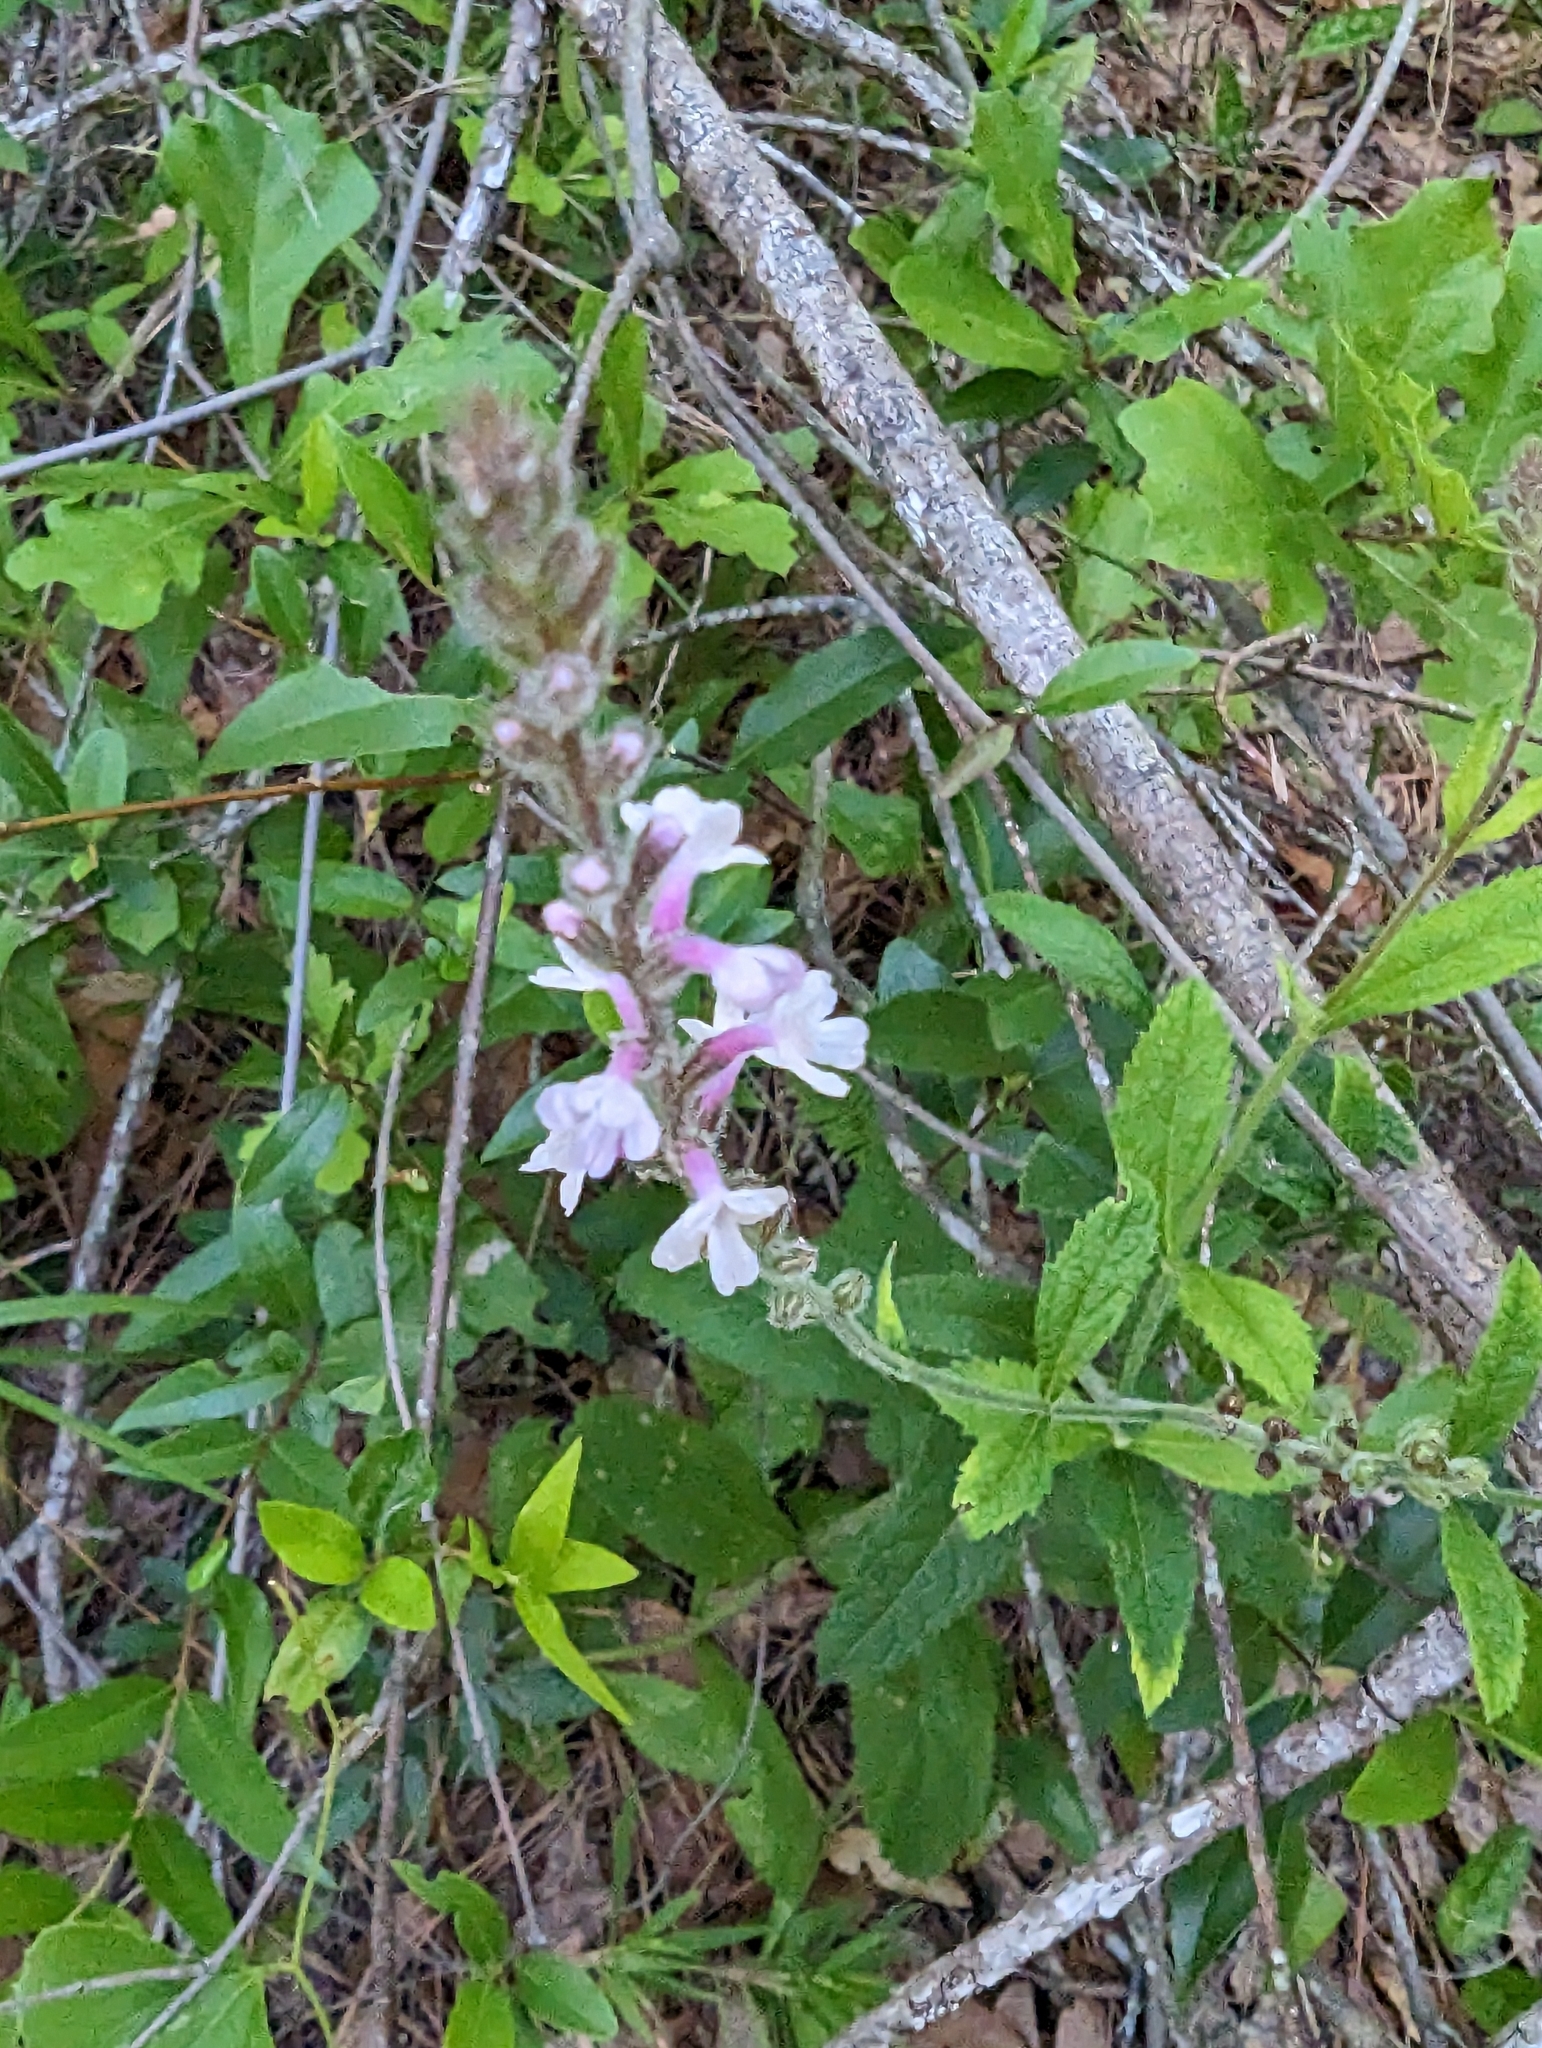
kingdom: Plantae
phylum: Tracheophyta
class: Magnoliopsida
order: Lamiales
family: Verbenaceae
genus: Verbena
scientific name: Verbena carnea
